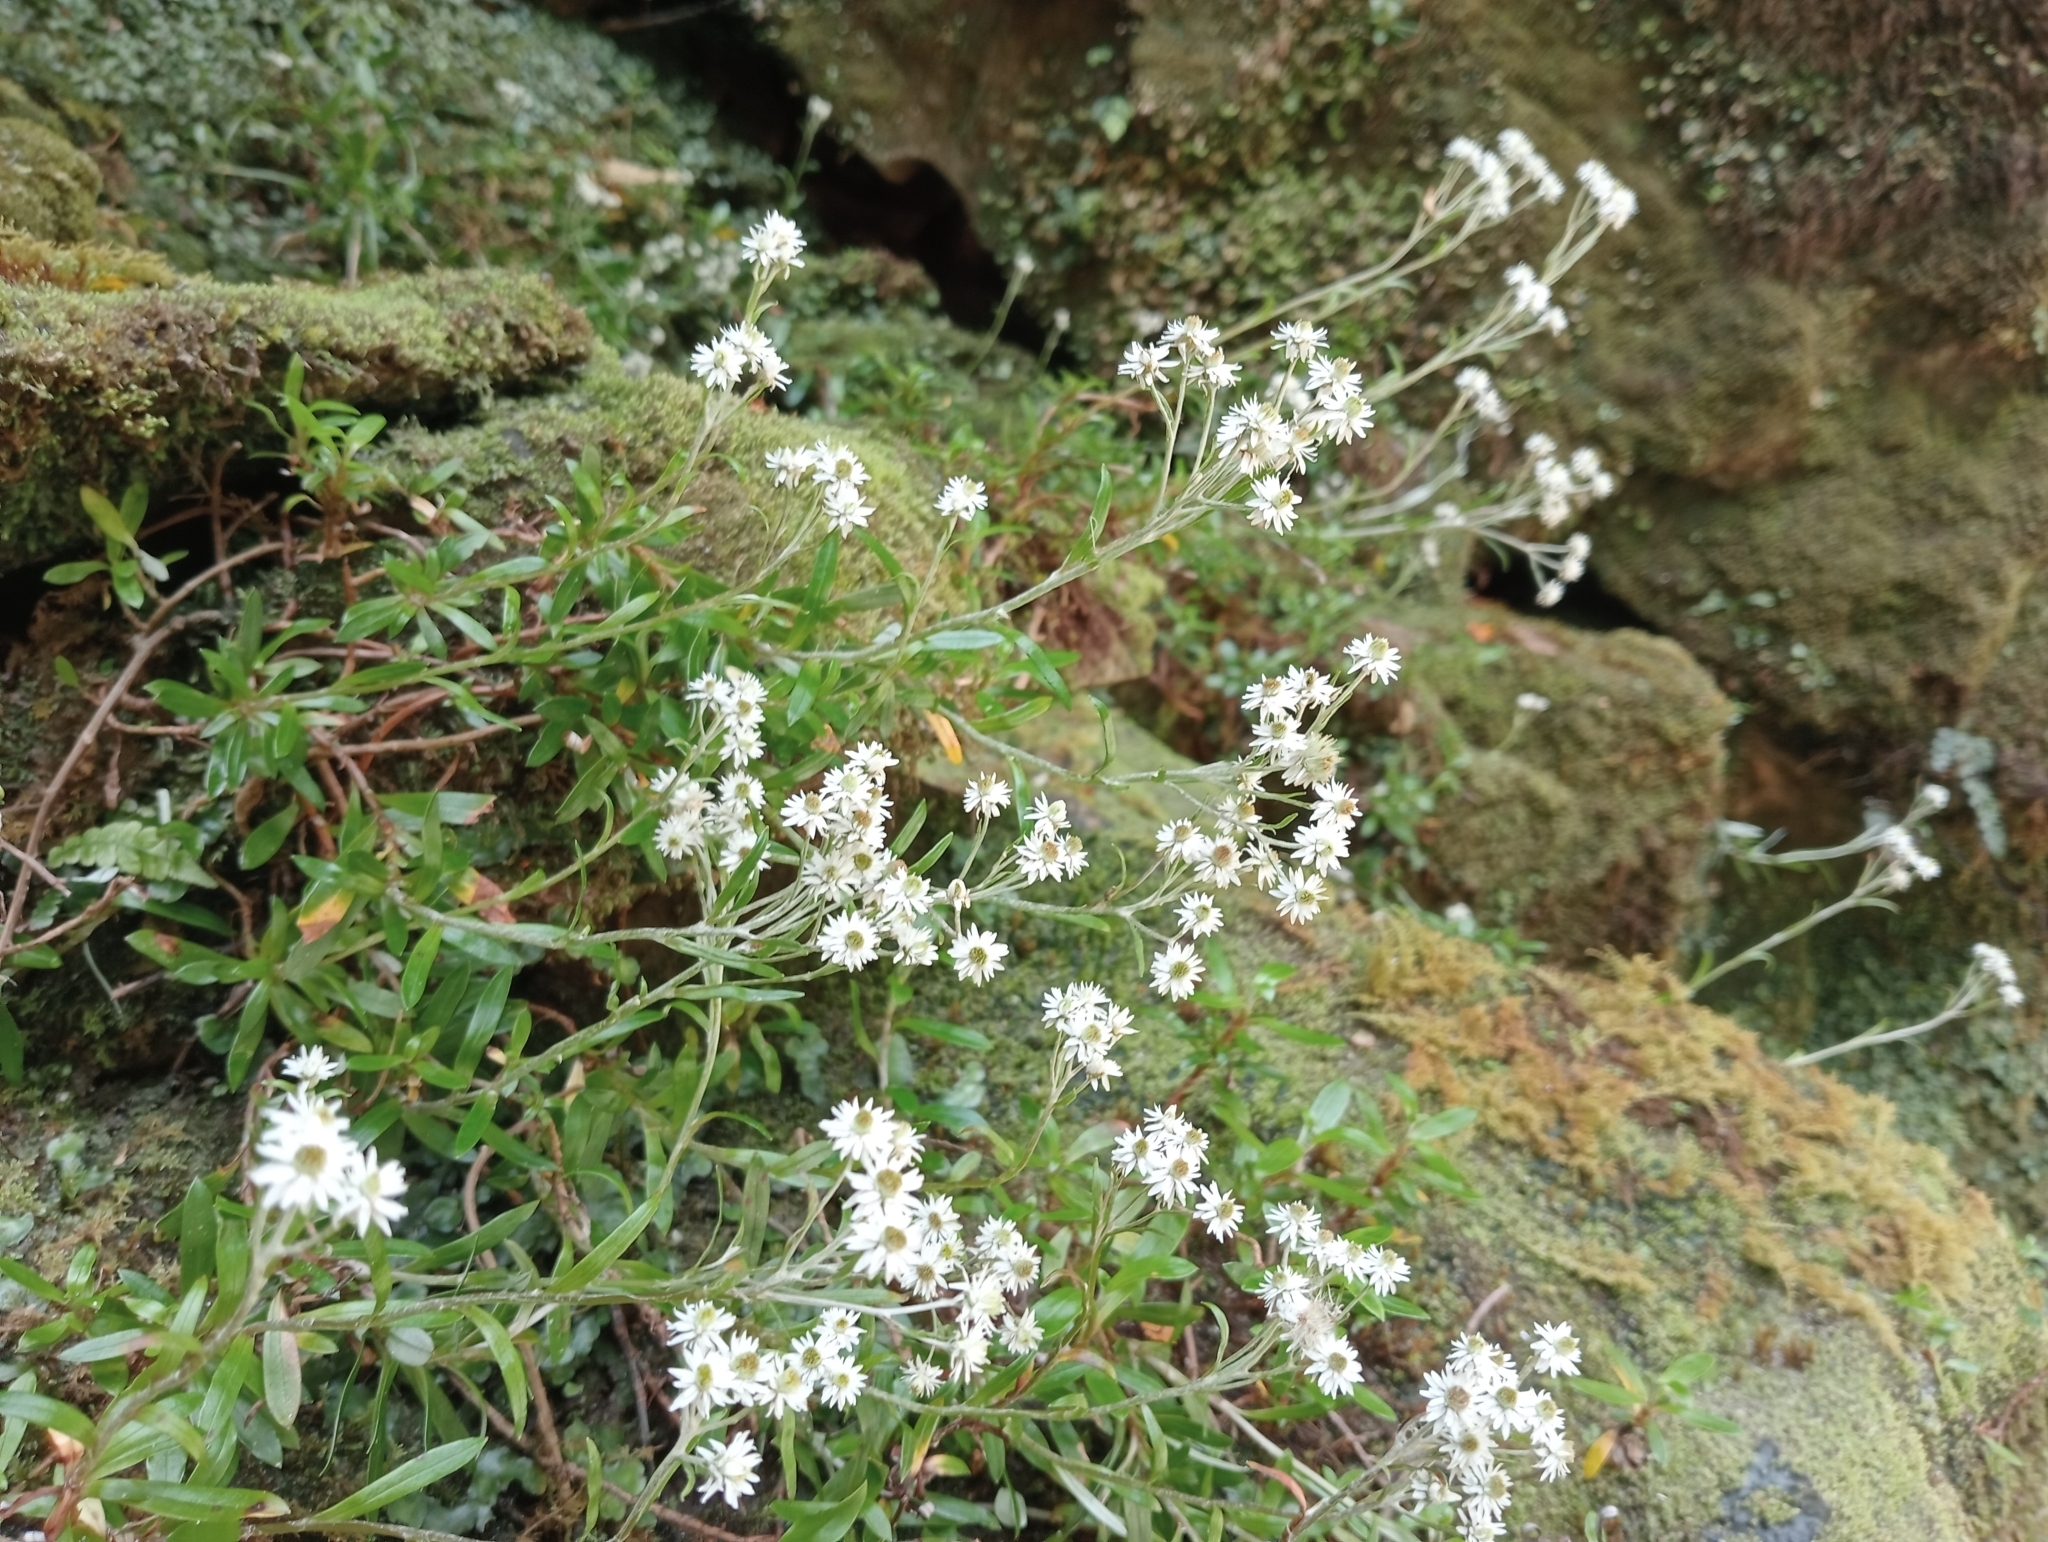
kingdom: Plantae
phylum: Tracheophyta
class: Magnoliopsida
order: Asterales
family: Asteraceae
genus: Anaphalioides
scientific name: Anaphalioides trinervis
